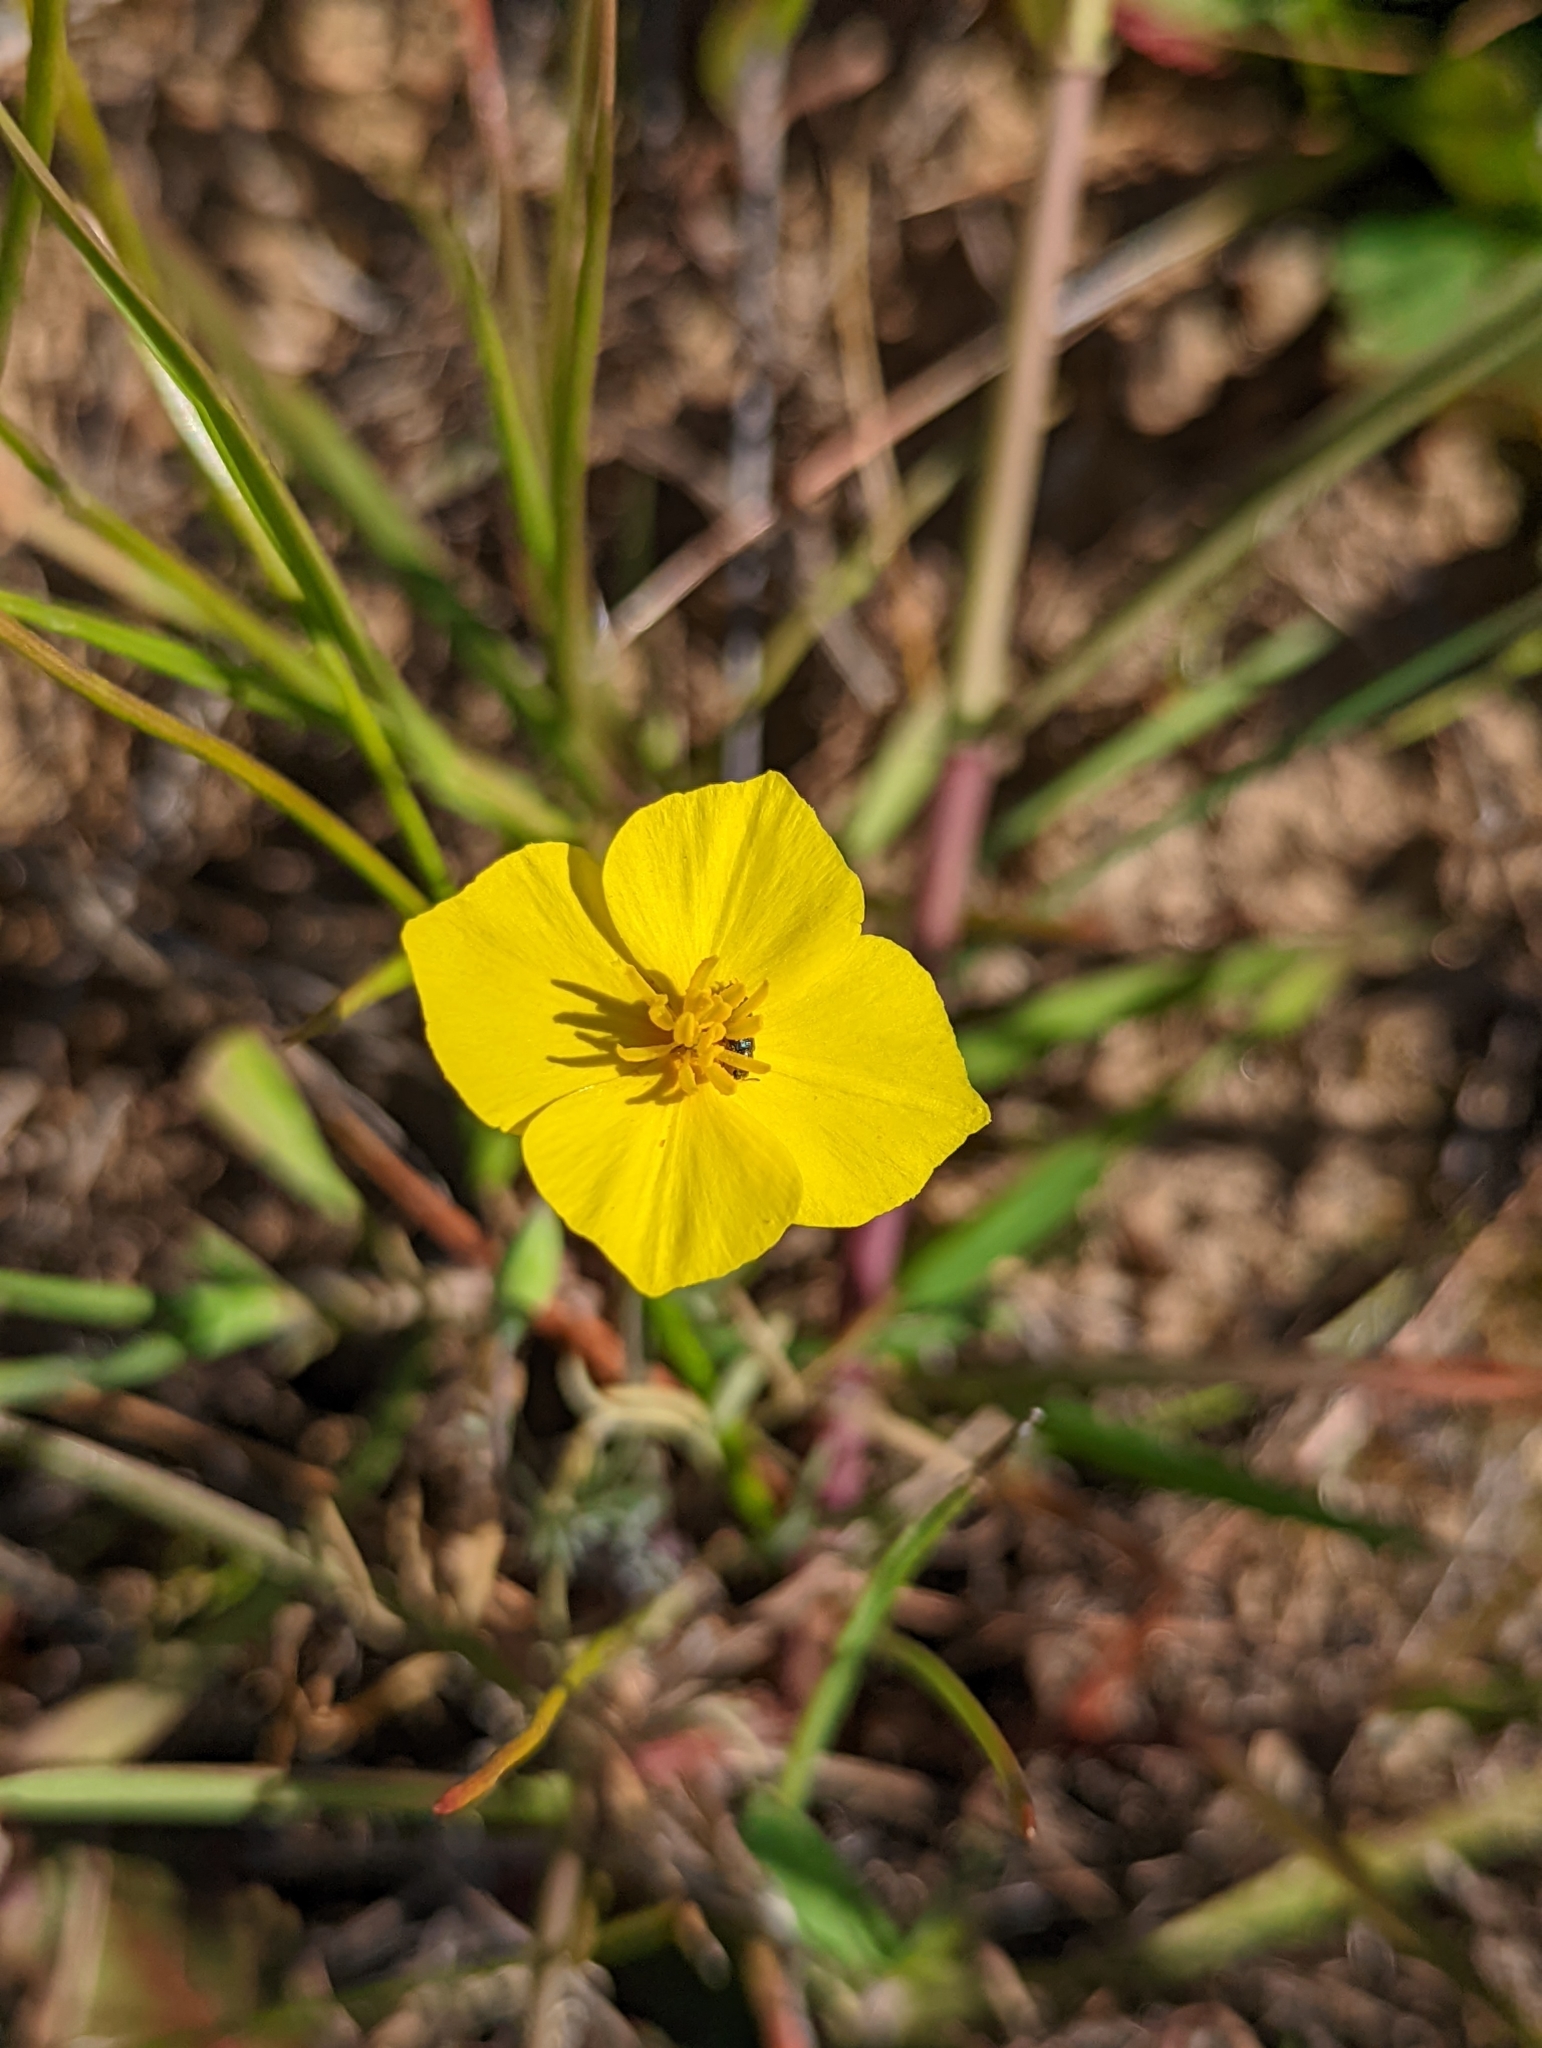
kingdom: Plantae
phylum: Tracheophyta
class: Magnoliopsida
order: Ranunculales
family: Papaveraceae
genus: Eschscholzia
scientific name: Eschscholzia lobbii
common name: Frying-pans
